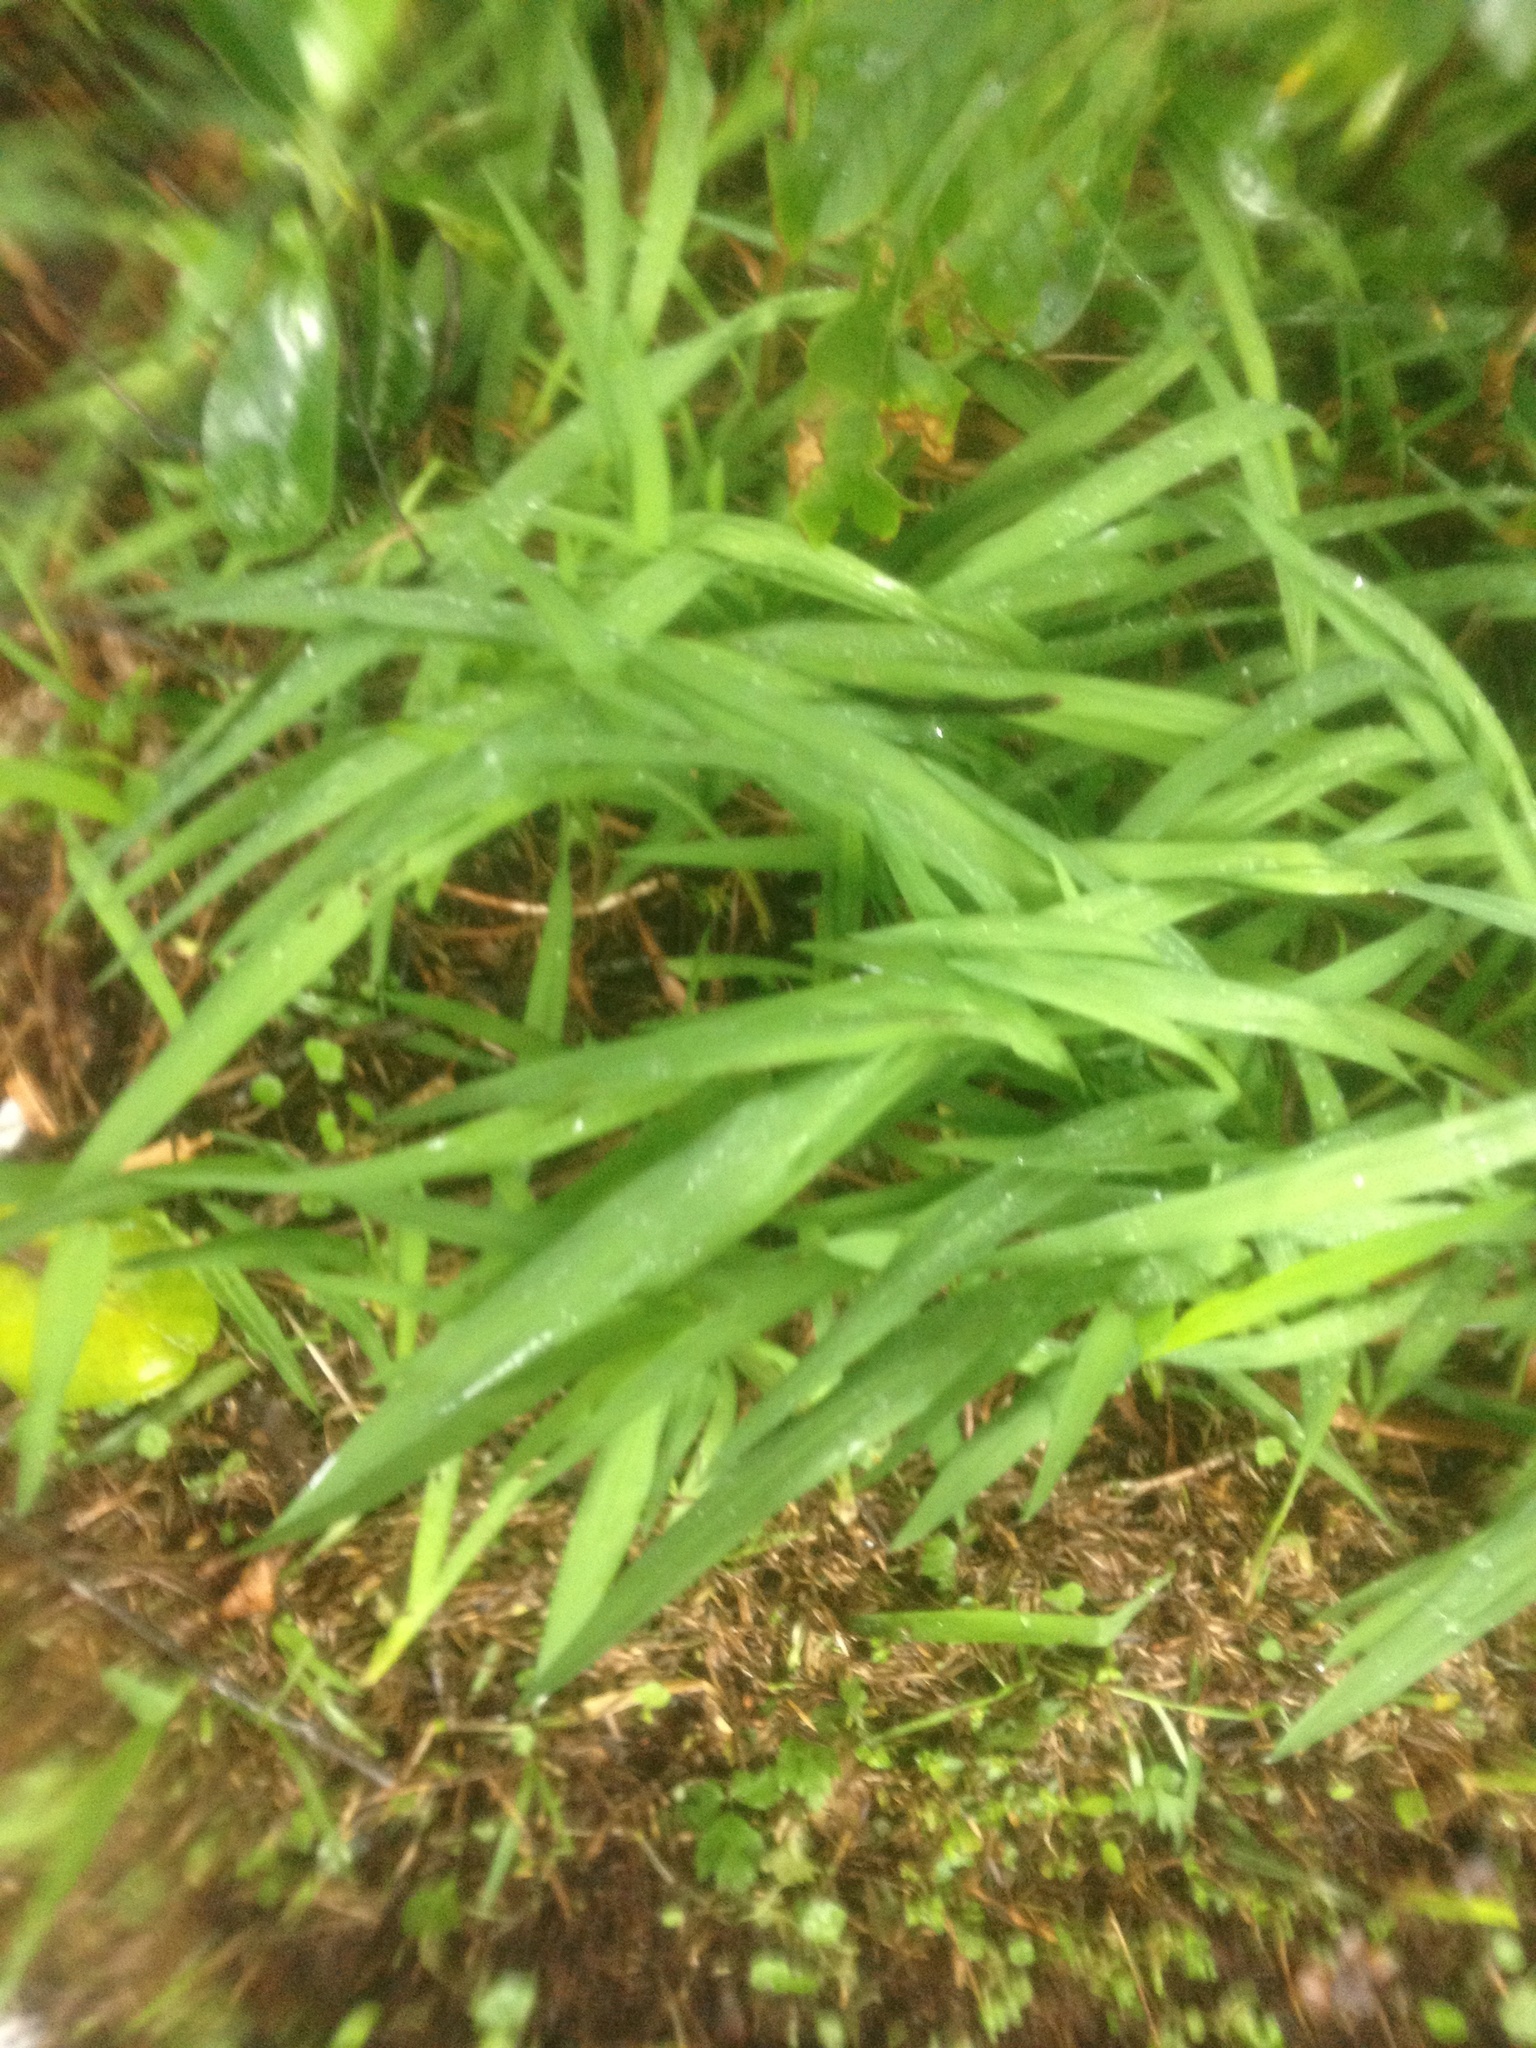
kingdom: Plantae
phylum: Tracheophyta
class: Liliopsida
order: Asparagales
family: Iridaceae
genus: Crocosmia
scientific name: Crocosmia crocosmiiflora
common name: Montbretia
